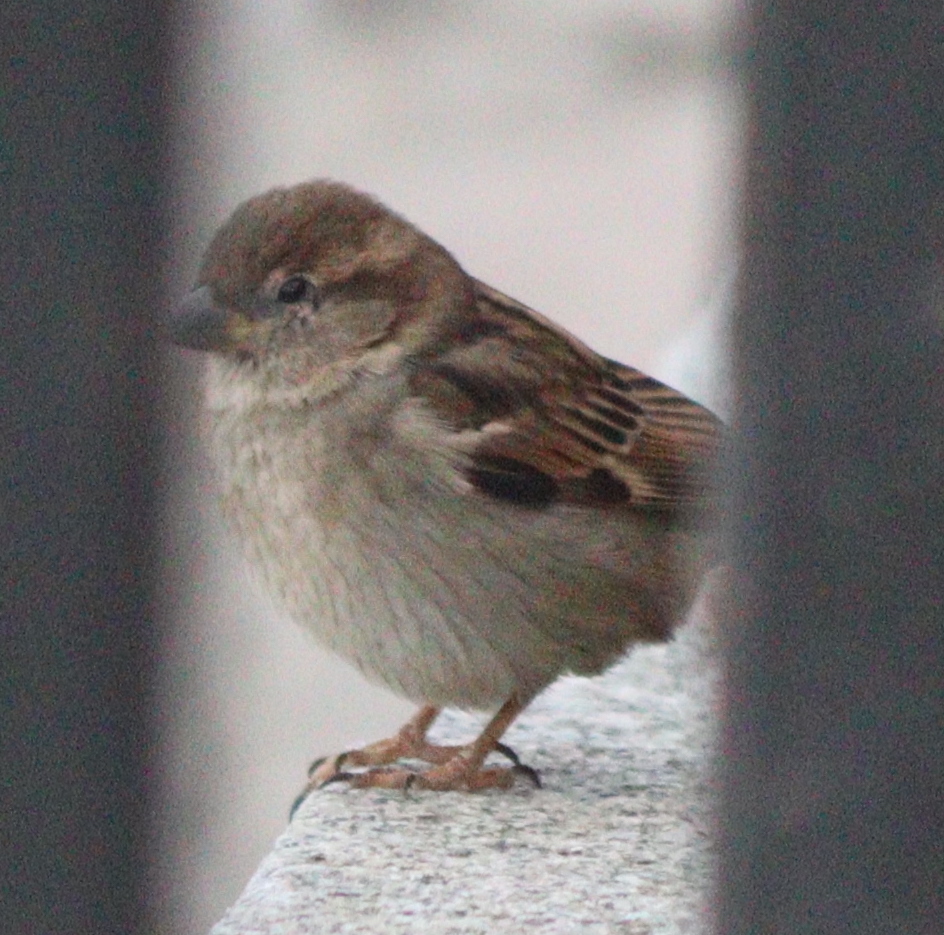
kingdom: Animalia
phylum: Chordata
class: Aves
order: Passeriformes
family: Passeridae
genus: Passer
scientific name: Passer domesticus
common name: House sparrow
